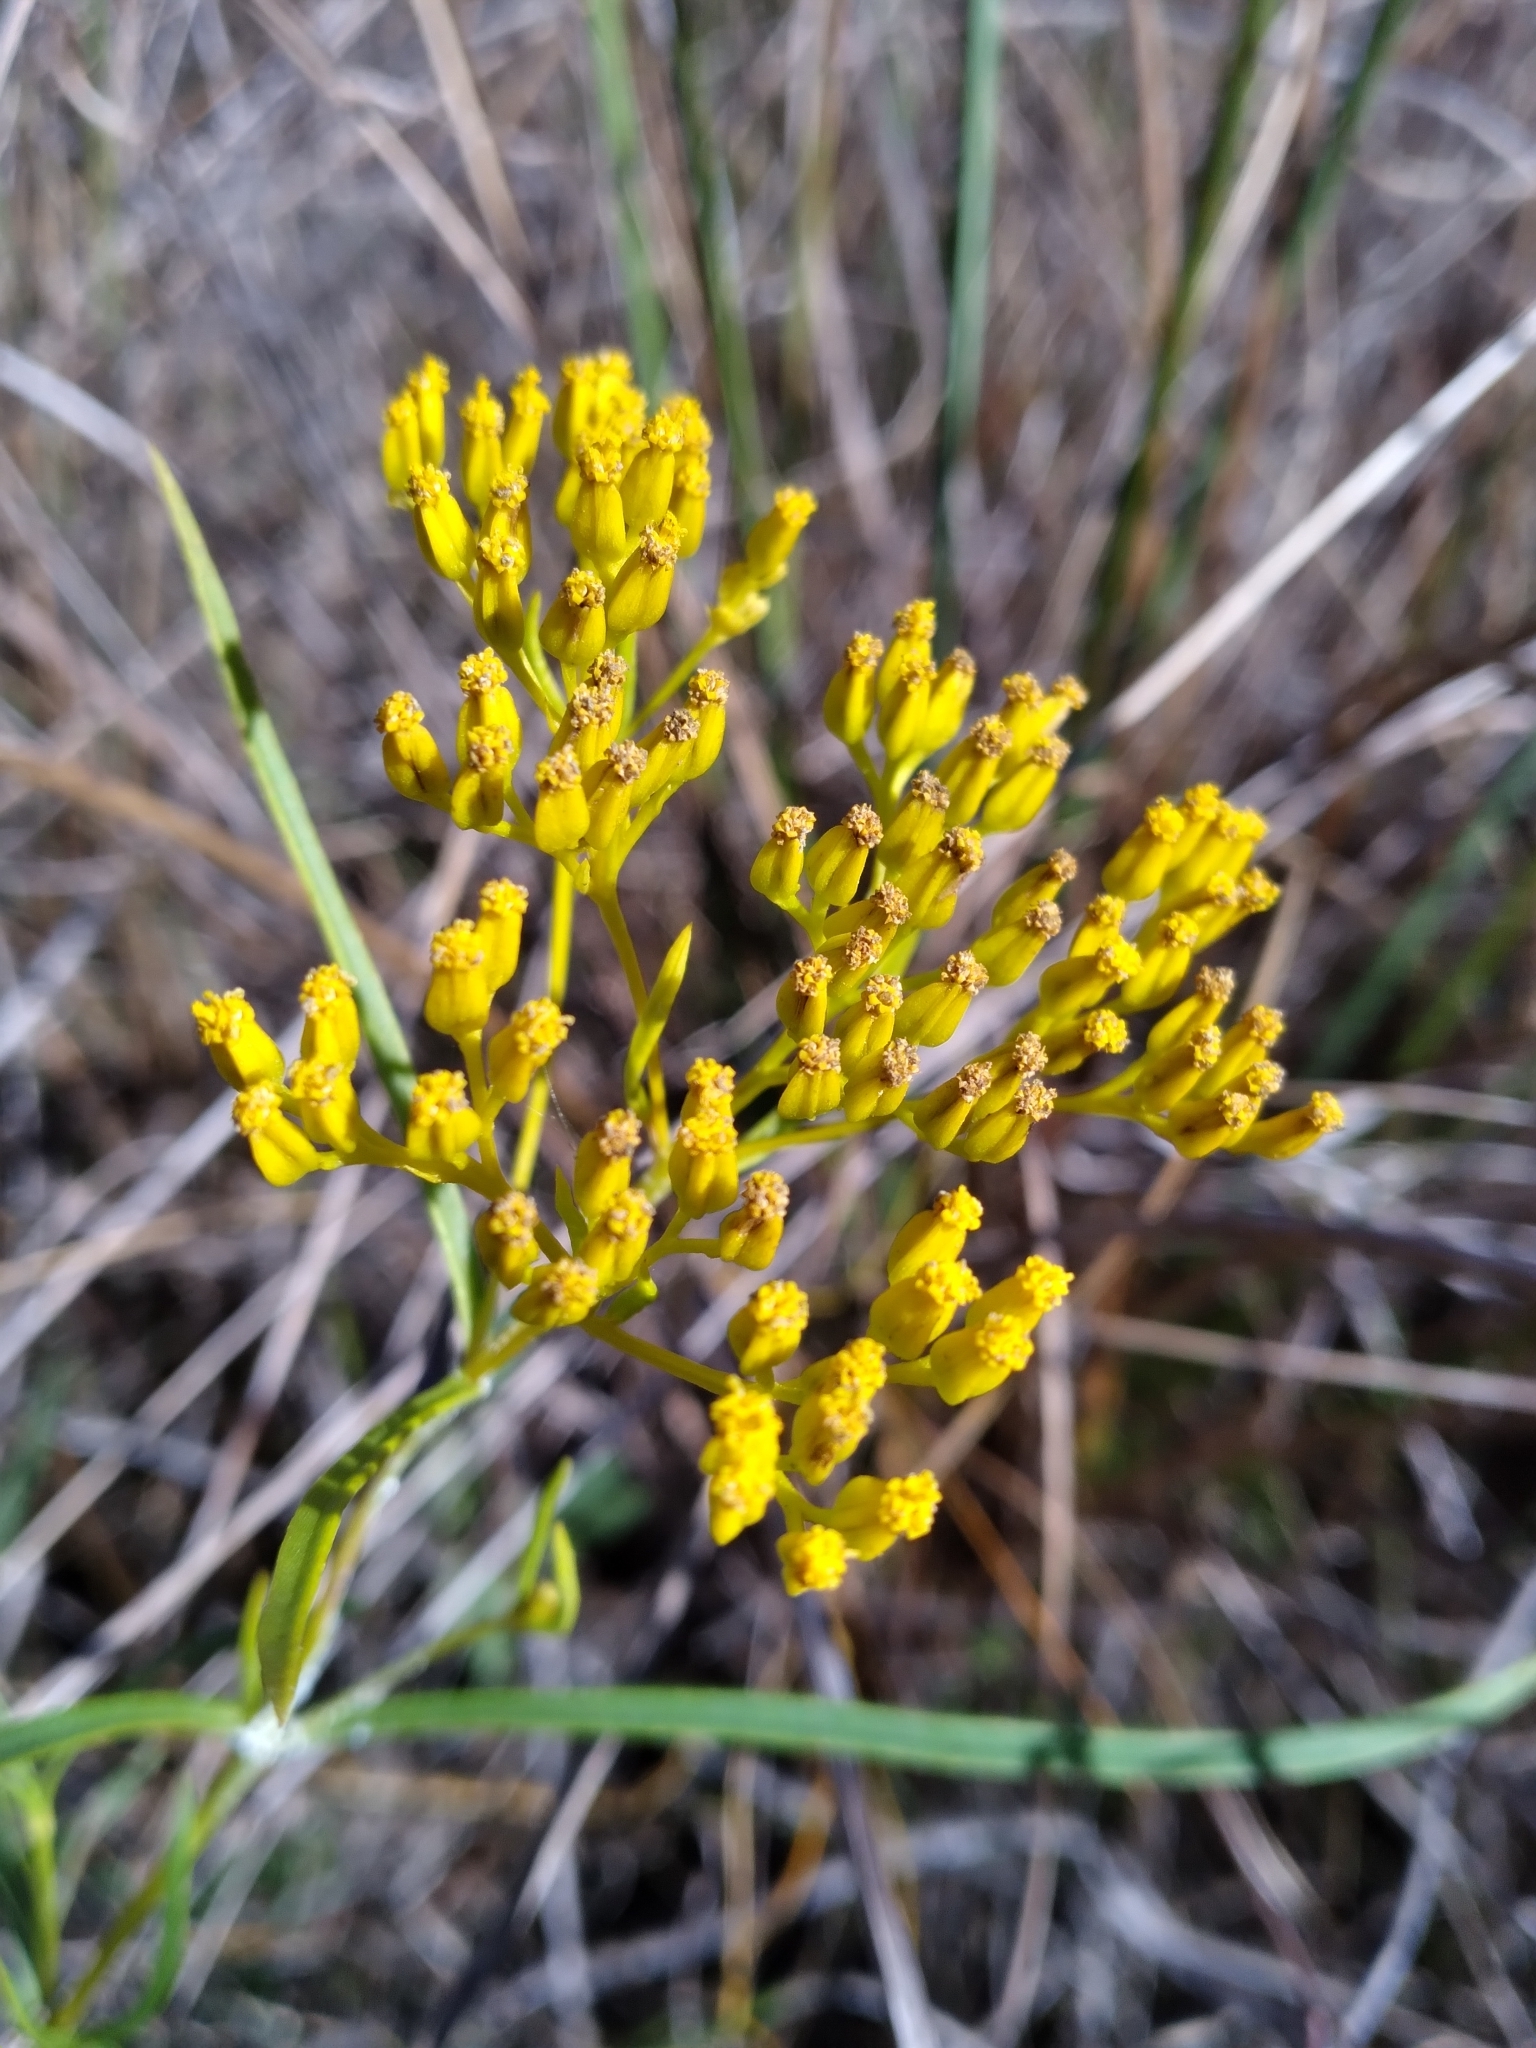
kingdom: Plantae
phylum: Tracheophyta
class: Magnoliopsida
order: Asterales
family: Asteraceae
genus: Flaveria
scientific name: Flaveria linearis
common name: Yellowtop
